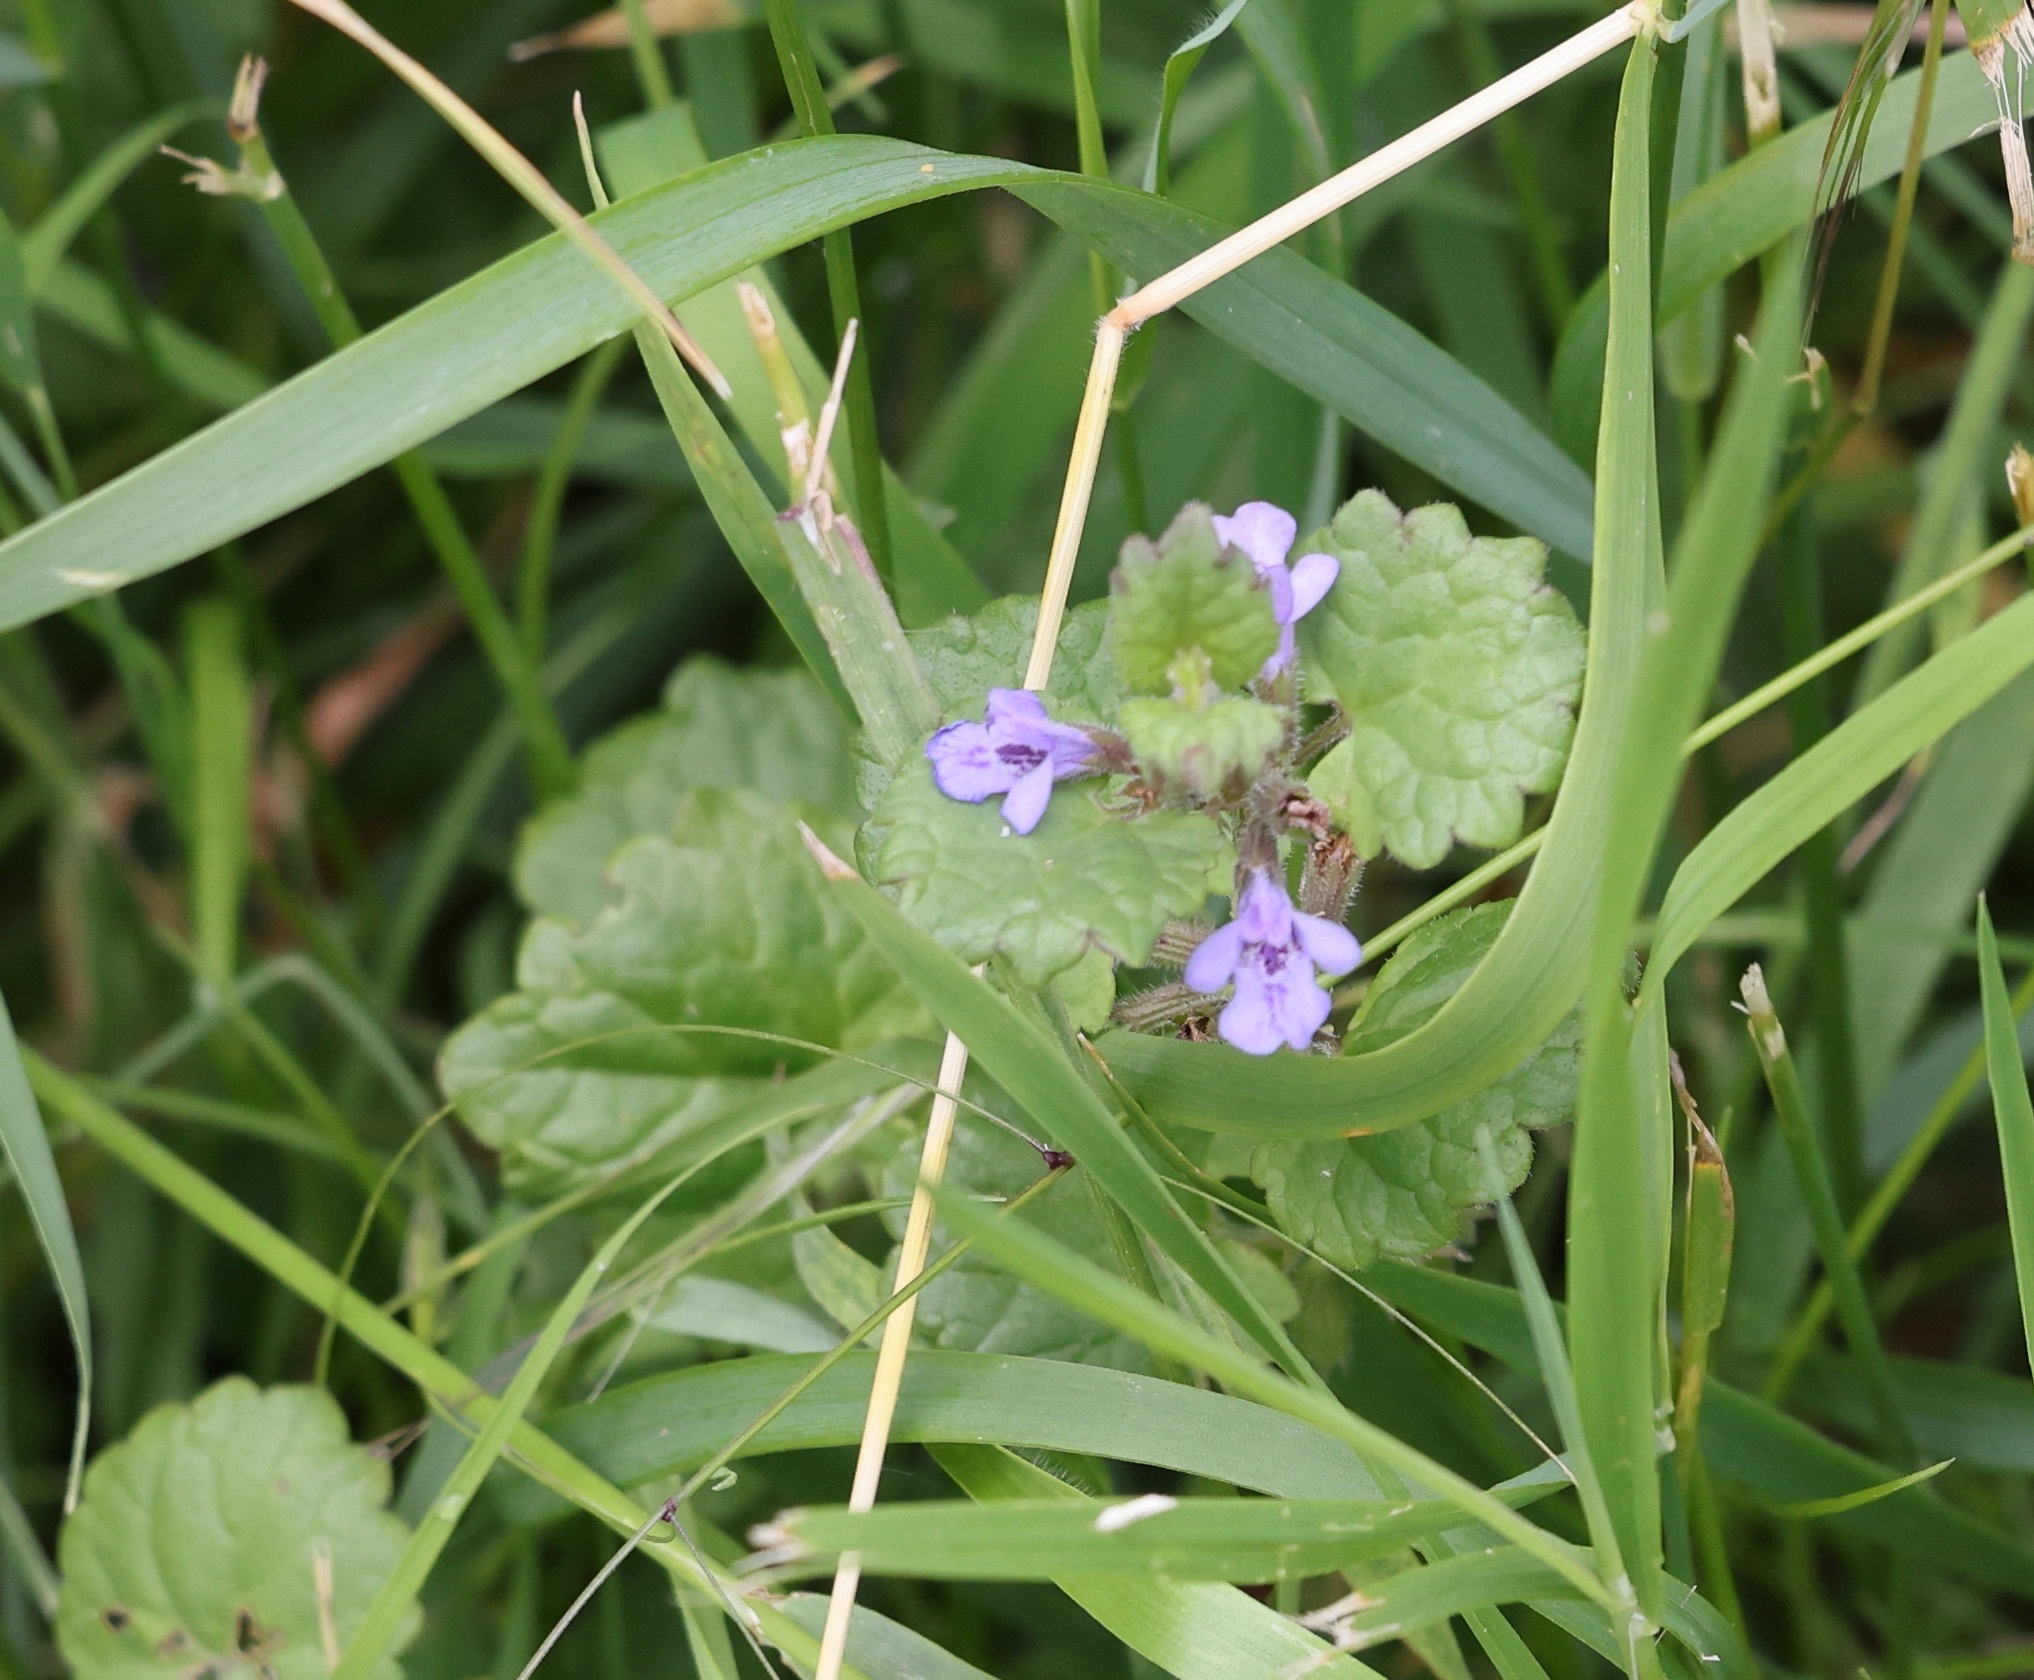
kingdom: Plantae
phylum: Tracheophyta
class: Magnoliopsida
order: Lamiales
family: Lamiaceae
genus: Glechoma
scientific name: Glechoma hederacea
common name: Ground ivy
